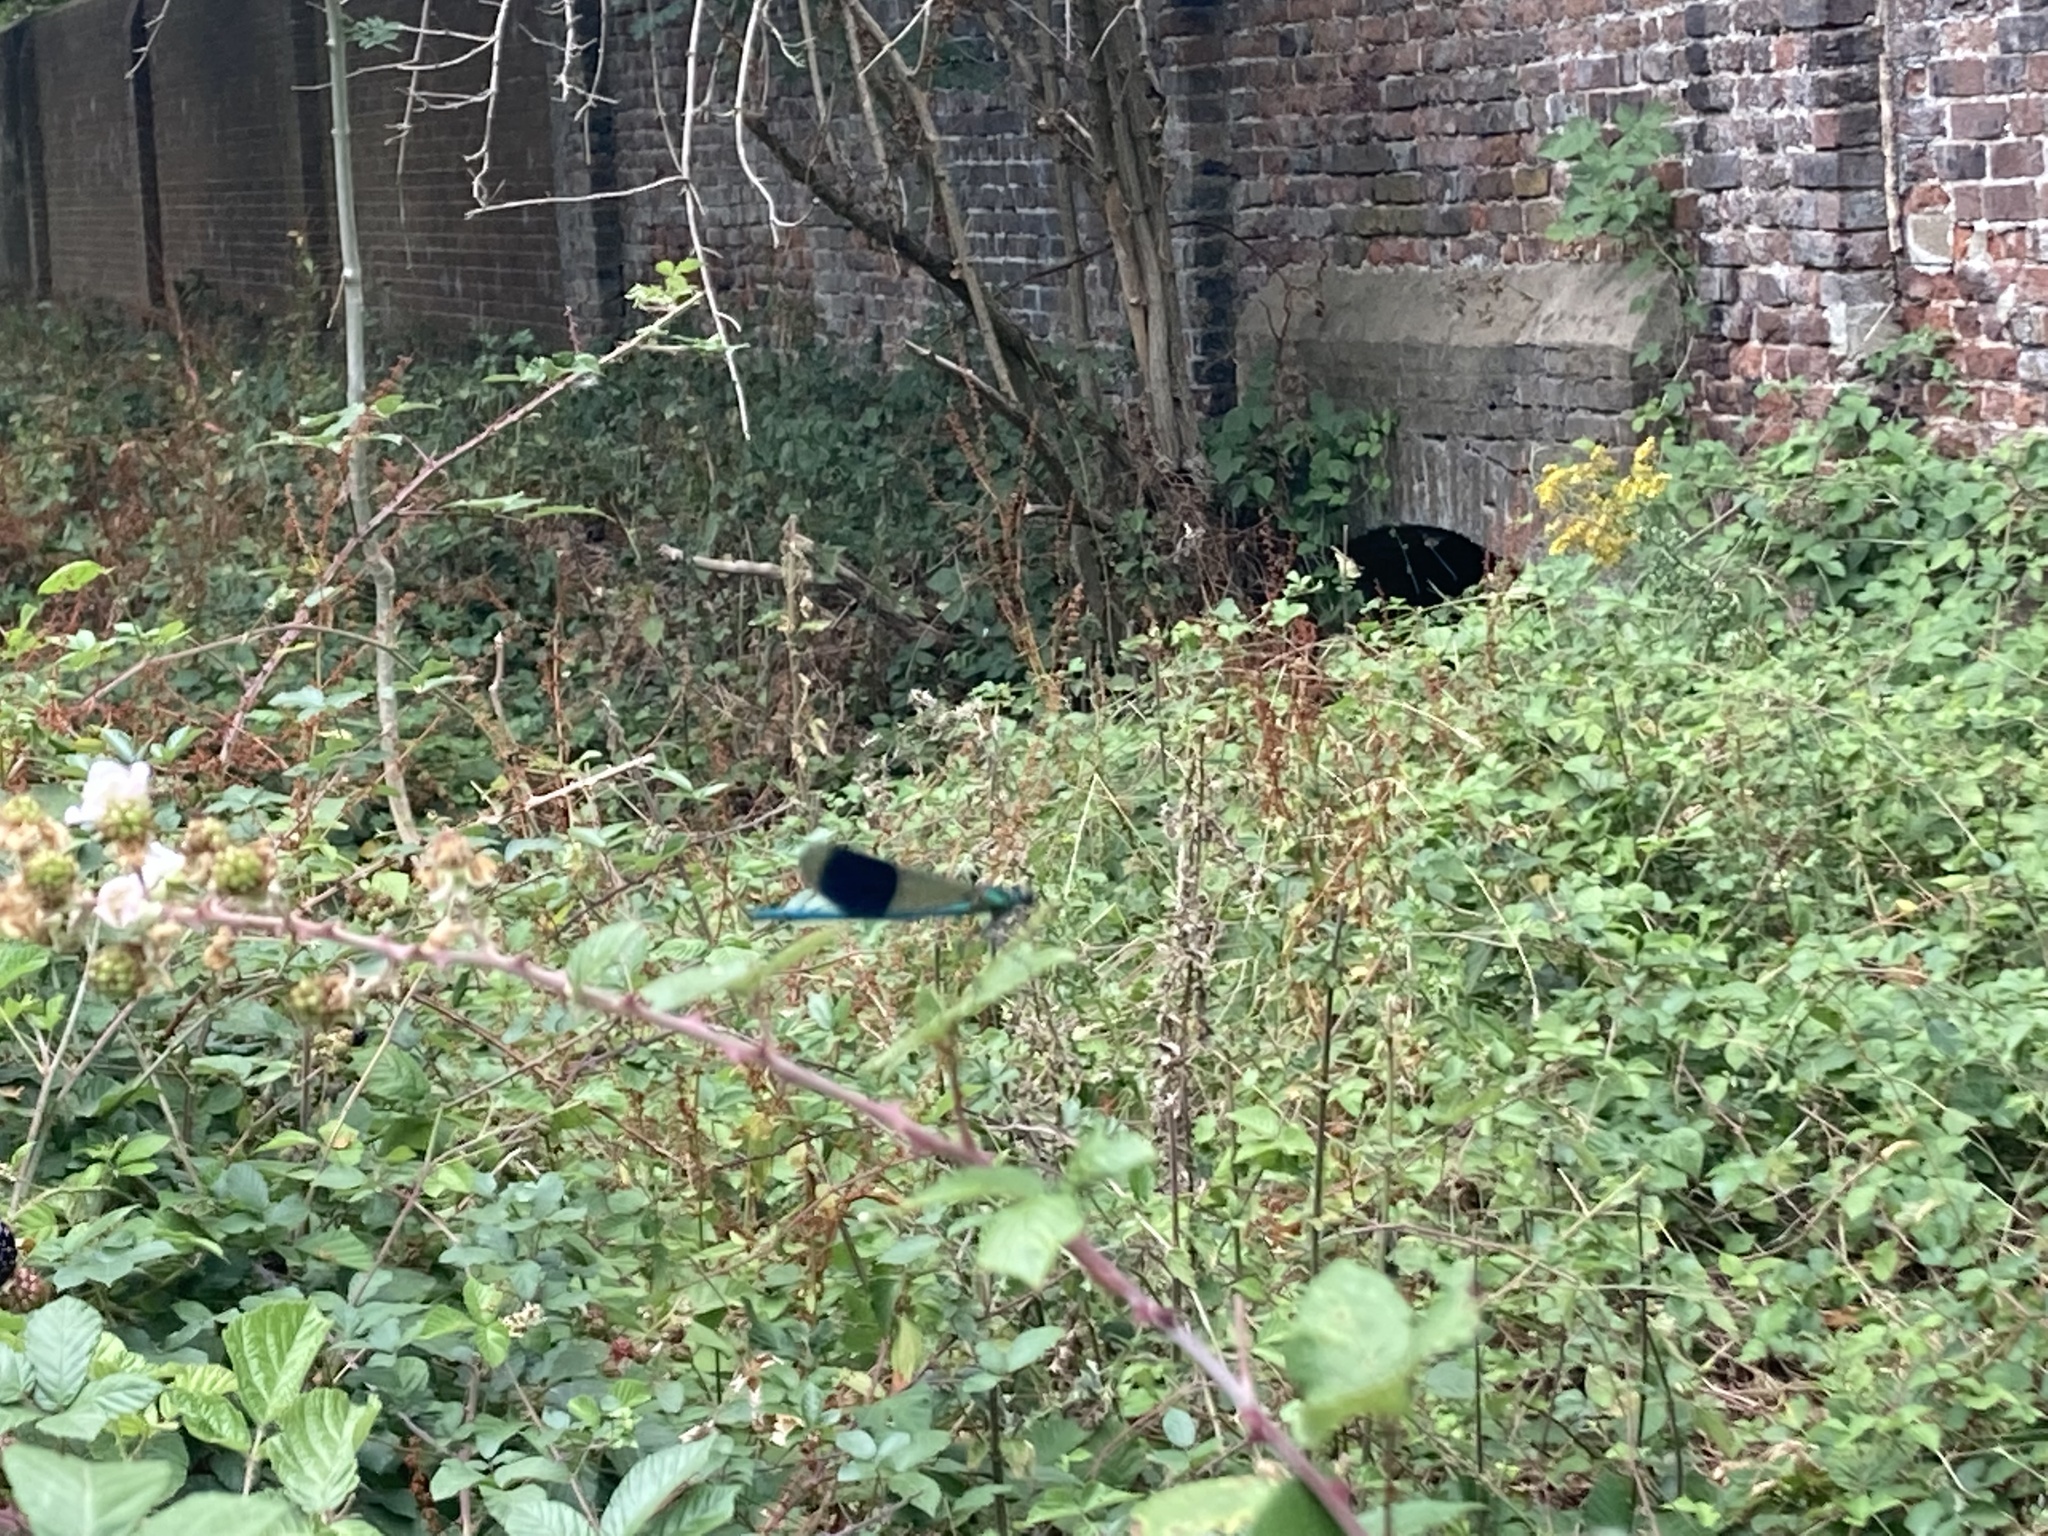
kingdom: Animalia
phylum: Arthropoda
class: Insecta
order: Odonata
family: Calopterygidae
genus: Calopteryx
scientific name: Calopteryx splendens
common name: Banded demoiselle
